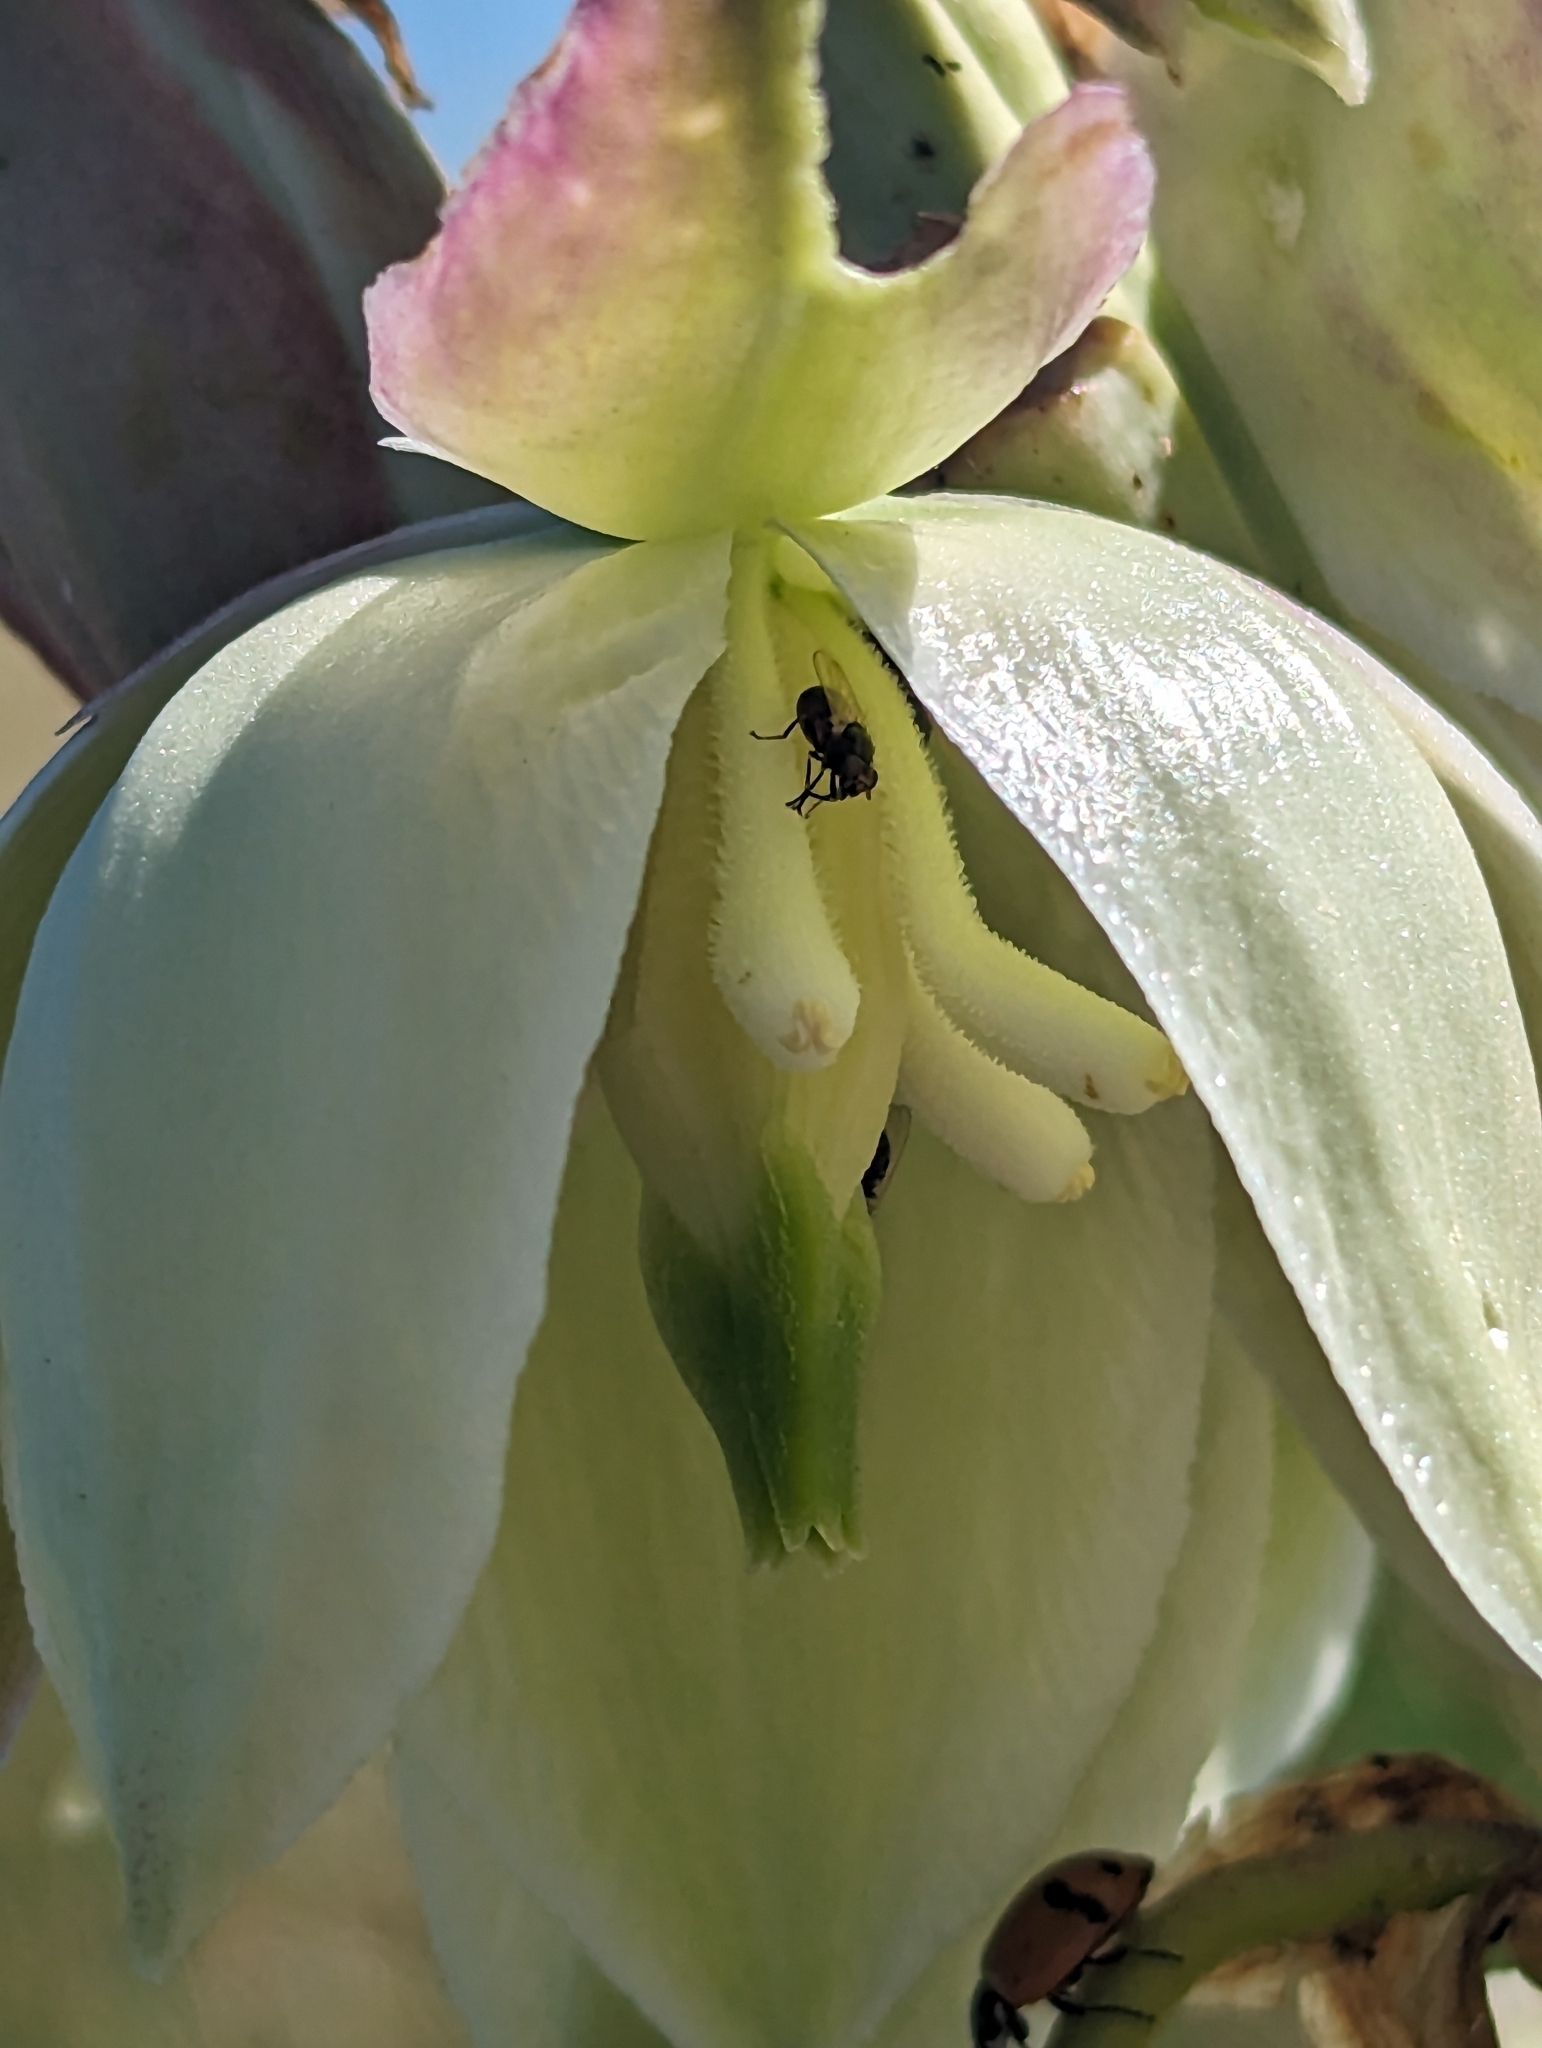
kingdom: Plantae
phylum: Tracheophyta
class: Liliopsida
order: Asparagales
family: Asparagaceae
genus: Yucca
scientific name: Yucca glauca
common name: Great plains yucca
